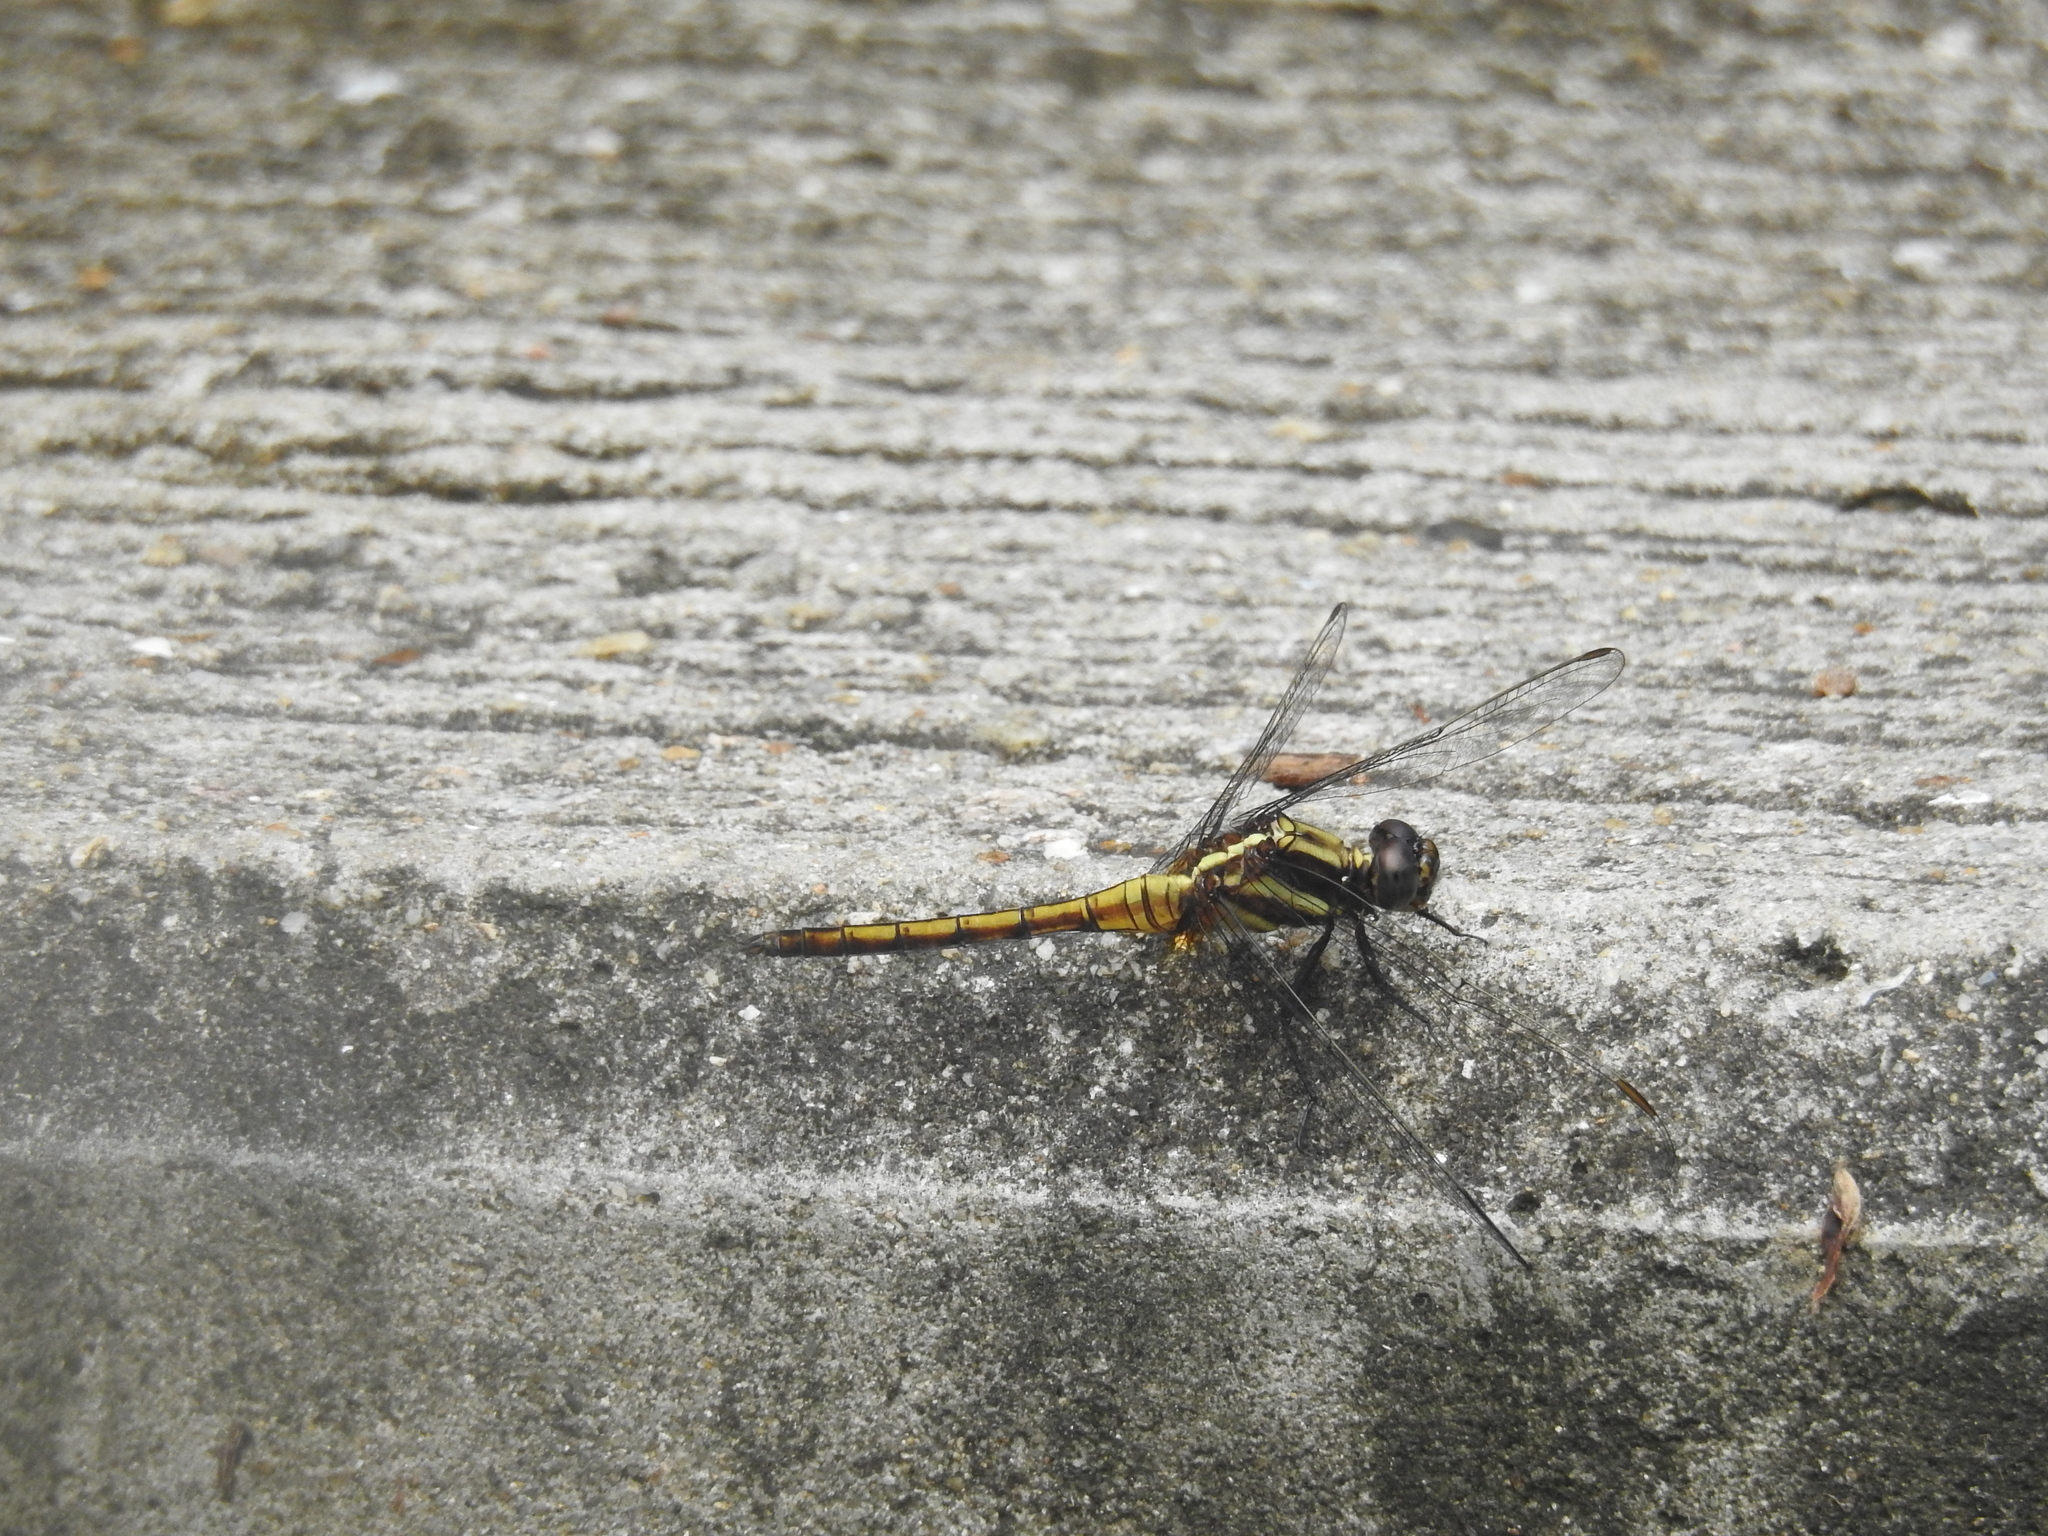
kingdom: Animalia
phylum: Arthropoda
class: Insecta
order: Odonata
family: Libellulidae
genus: Orthetrum
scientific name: Orthetrum glaucum
